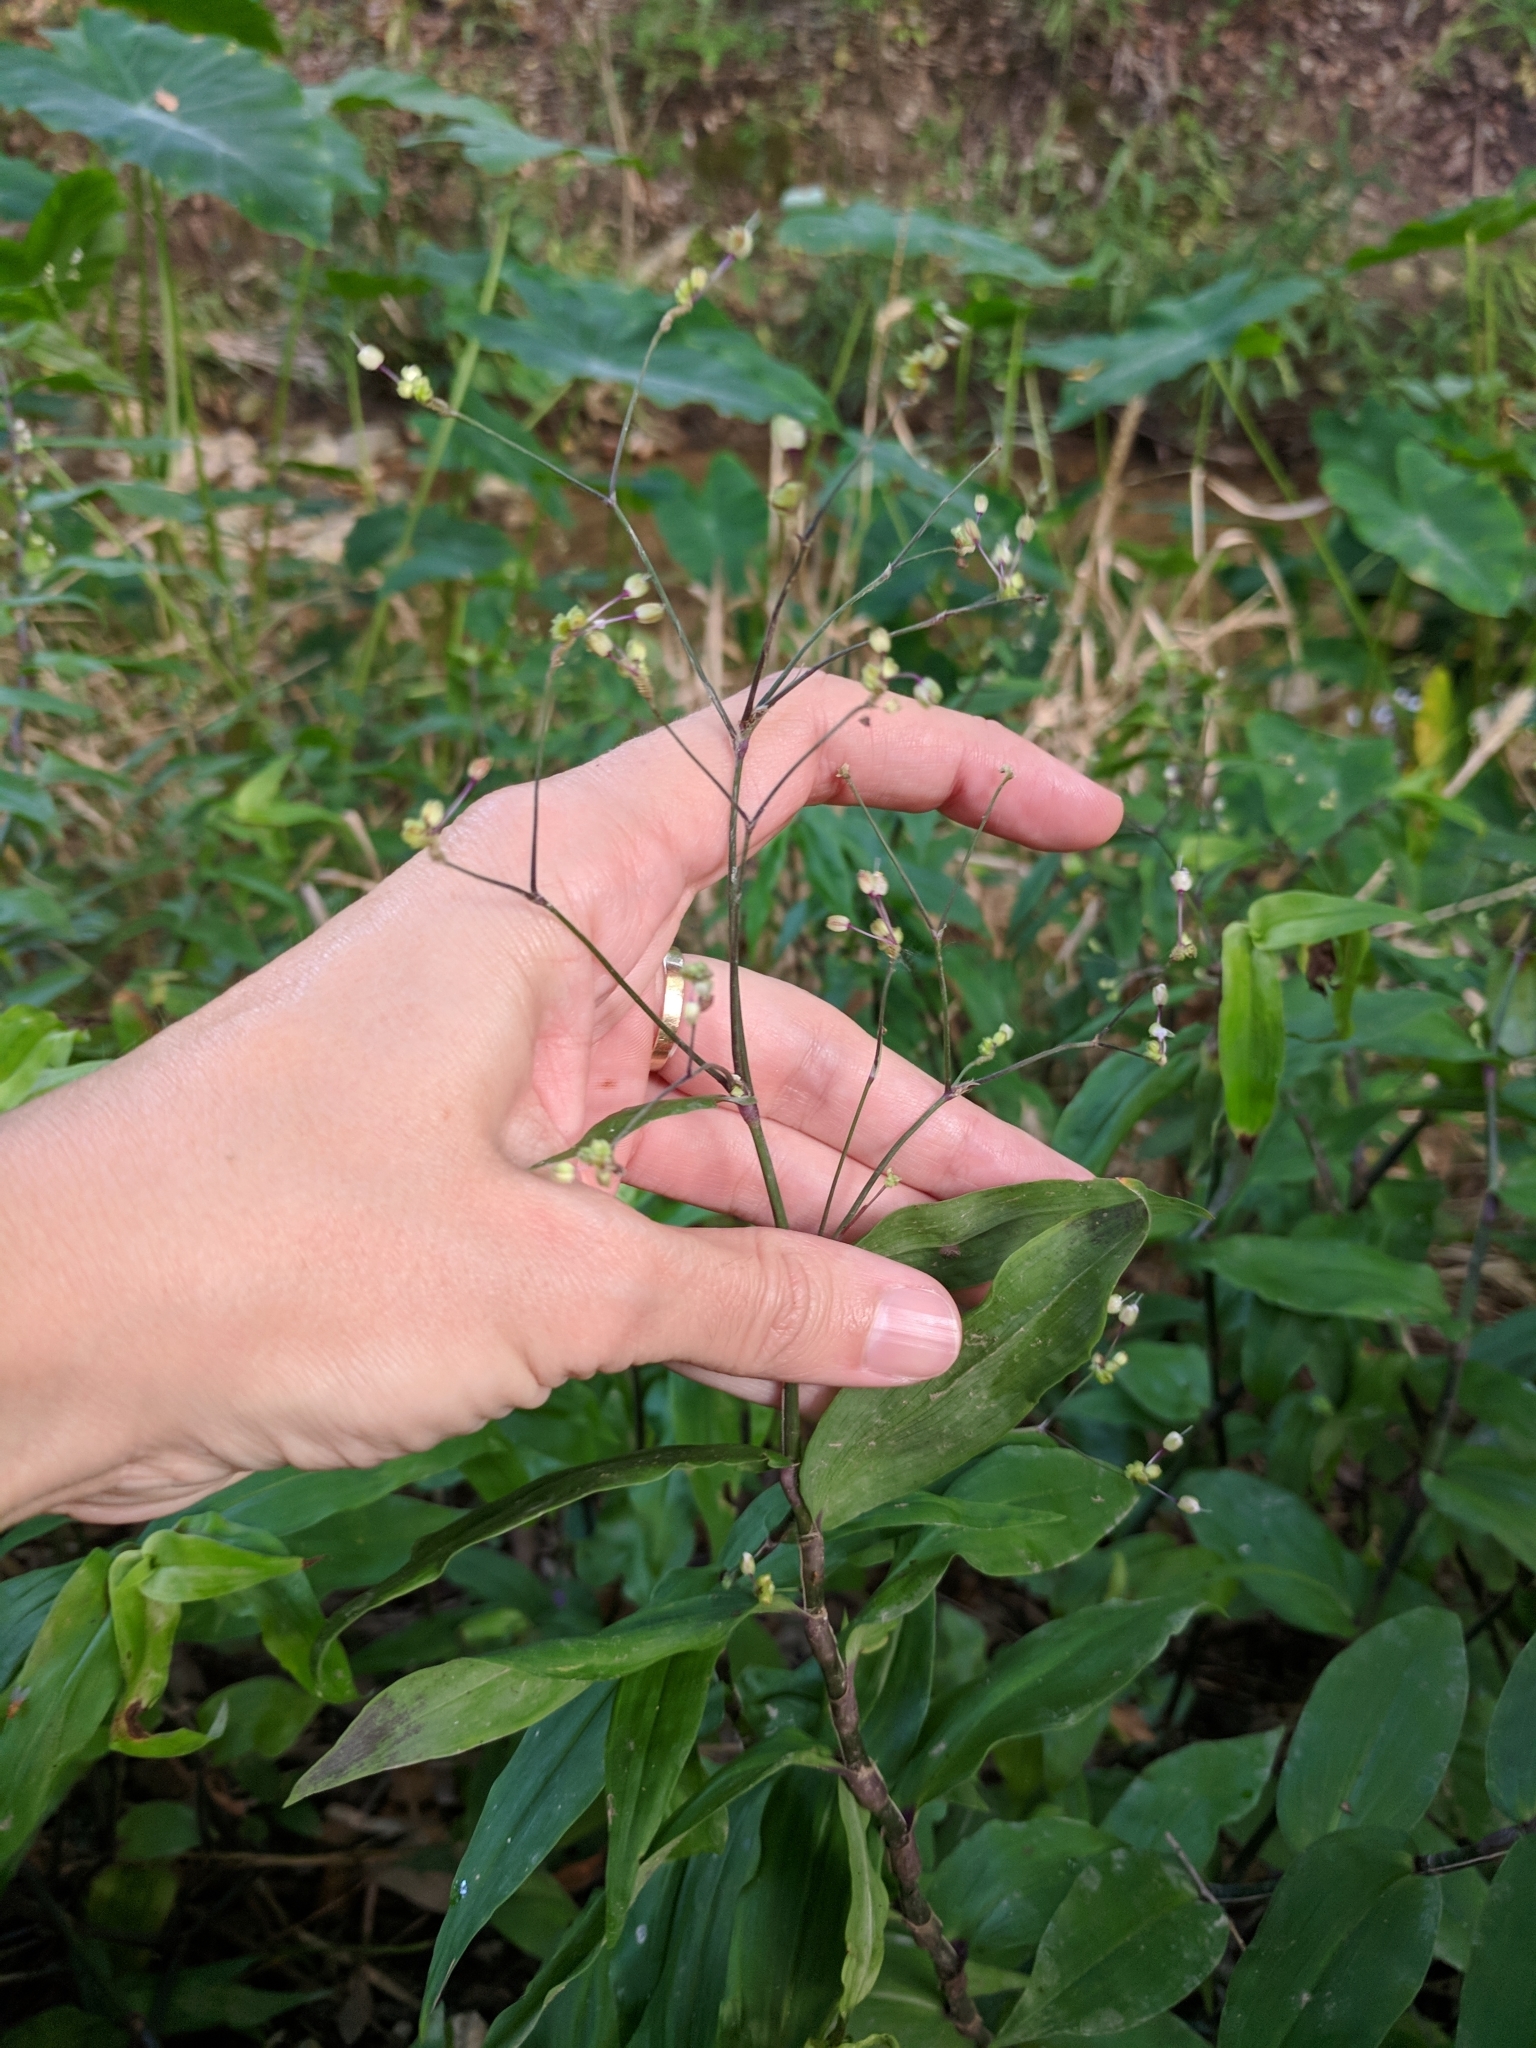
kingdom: Plantae
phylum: Tracheophyta
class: Liliopsida
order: Commelinales
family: Commelinaceae
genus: Gibasis
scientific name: Gibasis pellucida
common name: Dotted bridalveil
